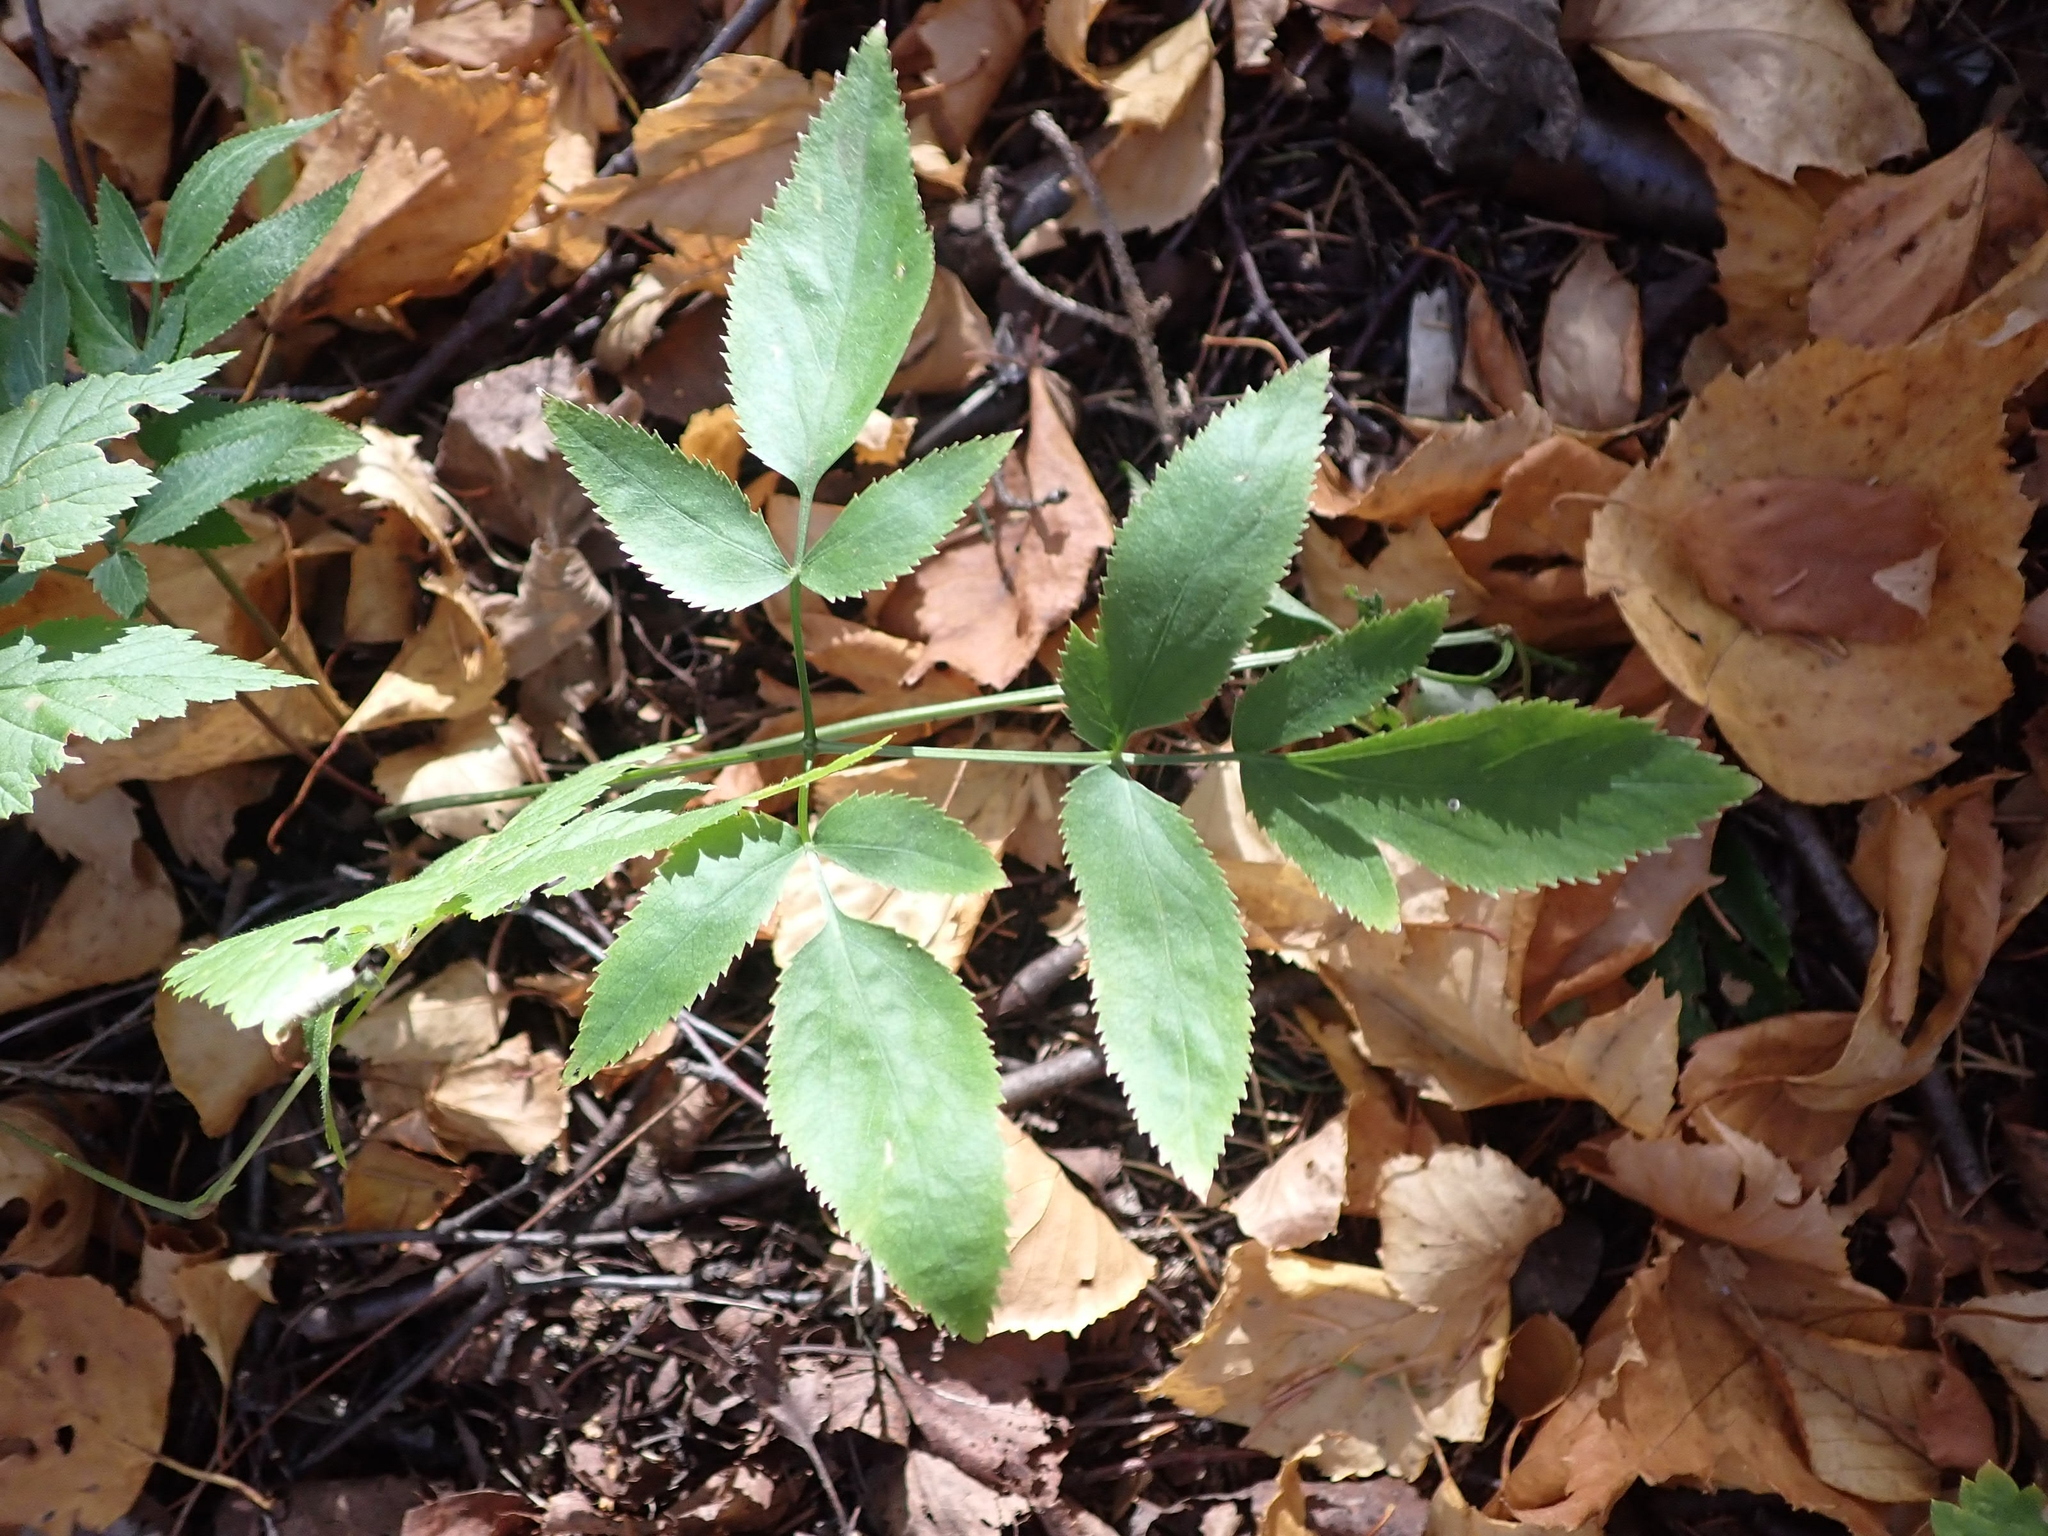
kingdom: Plantae
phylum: Tracheophyta
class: Magnoliopsida
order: Apiales
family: Apiaceae
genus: Zizia
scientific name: Zizia aurea
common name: Golden alexanders
